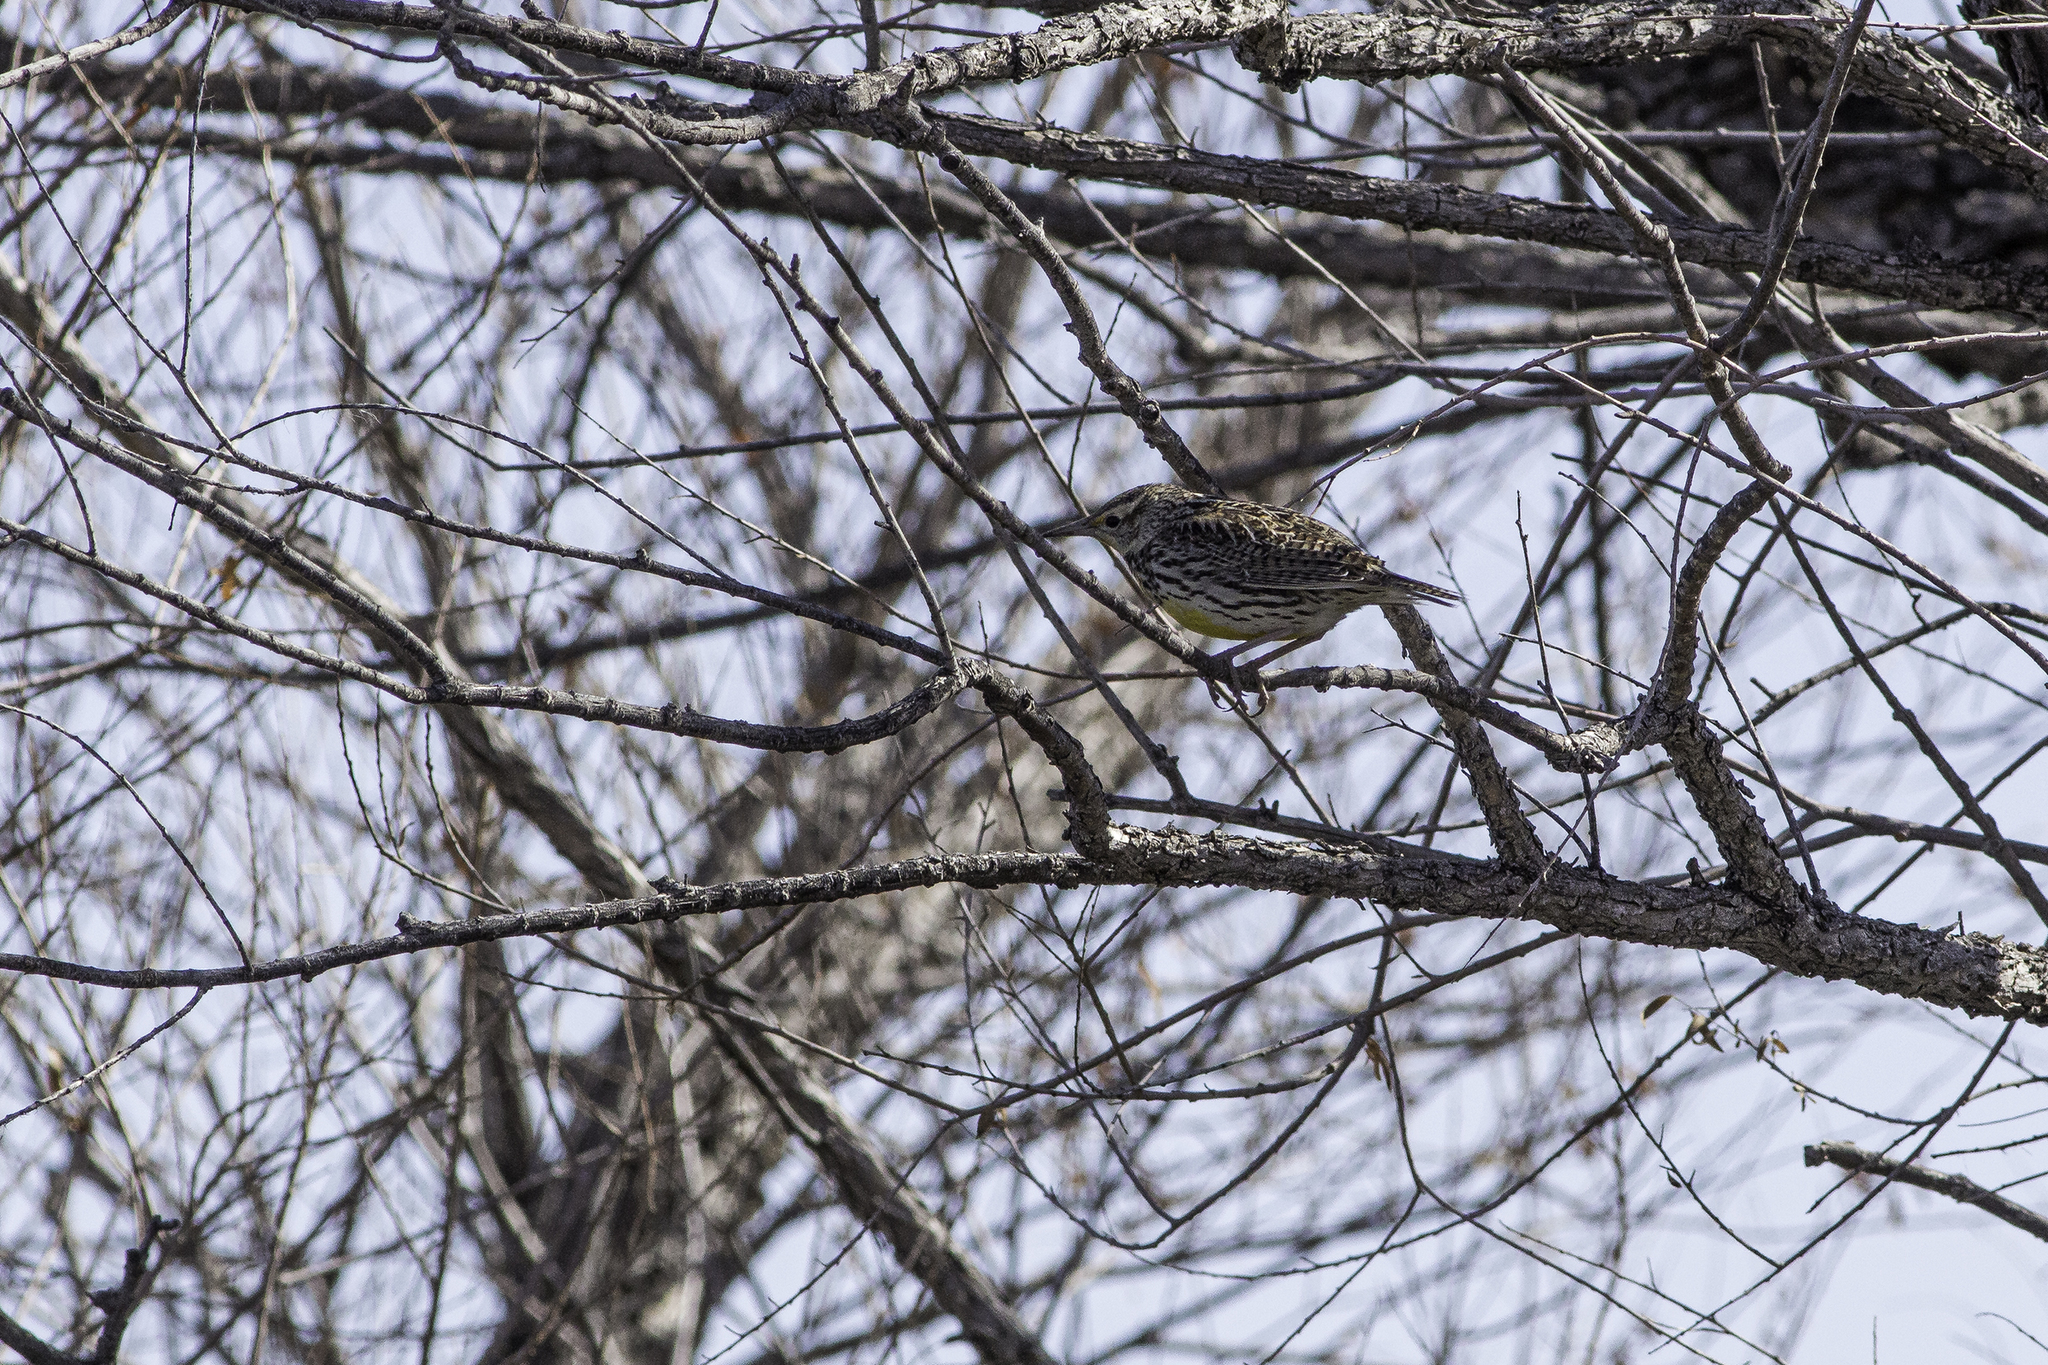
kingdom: Animalia
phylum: Chordata
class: Aves
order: Passeriformes
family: Icteridae
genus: Sturnella
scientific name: Sturnella neglecta
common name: Western meadowlark
